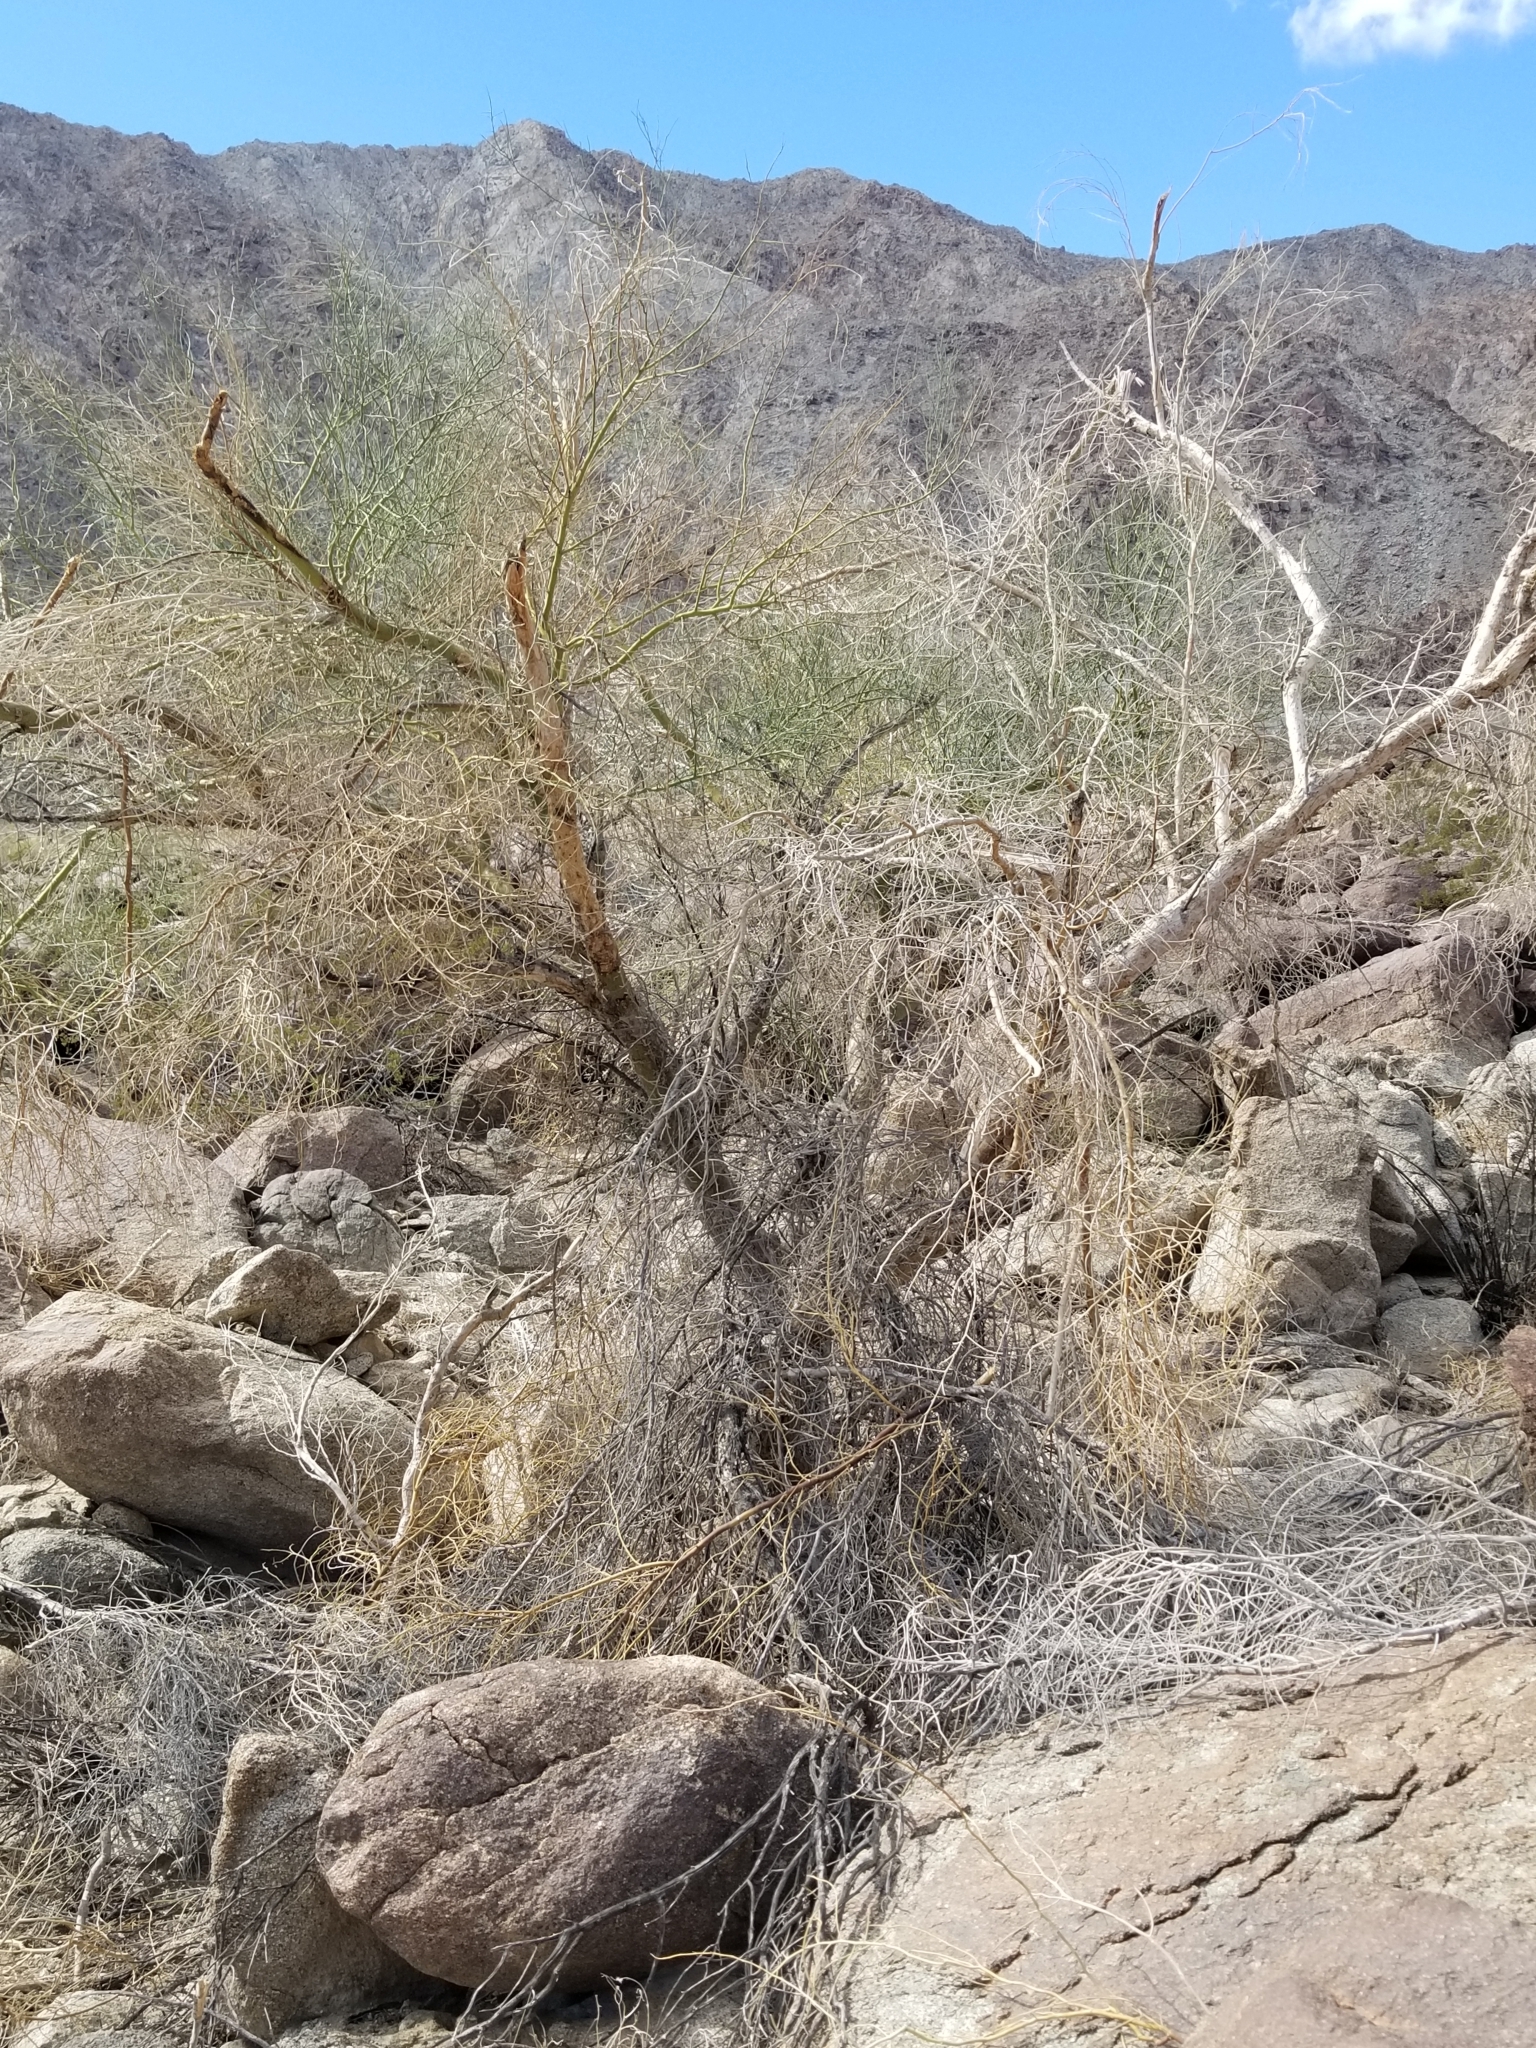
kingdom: Plantae
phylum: Tracheophyta
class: Magnoliopsida
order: Fabales
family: Fabaceae
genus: Parkinsonia
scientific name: Parkinsonia florida
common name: Blue paloverde
